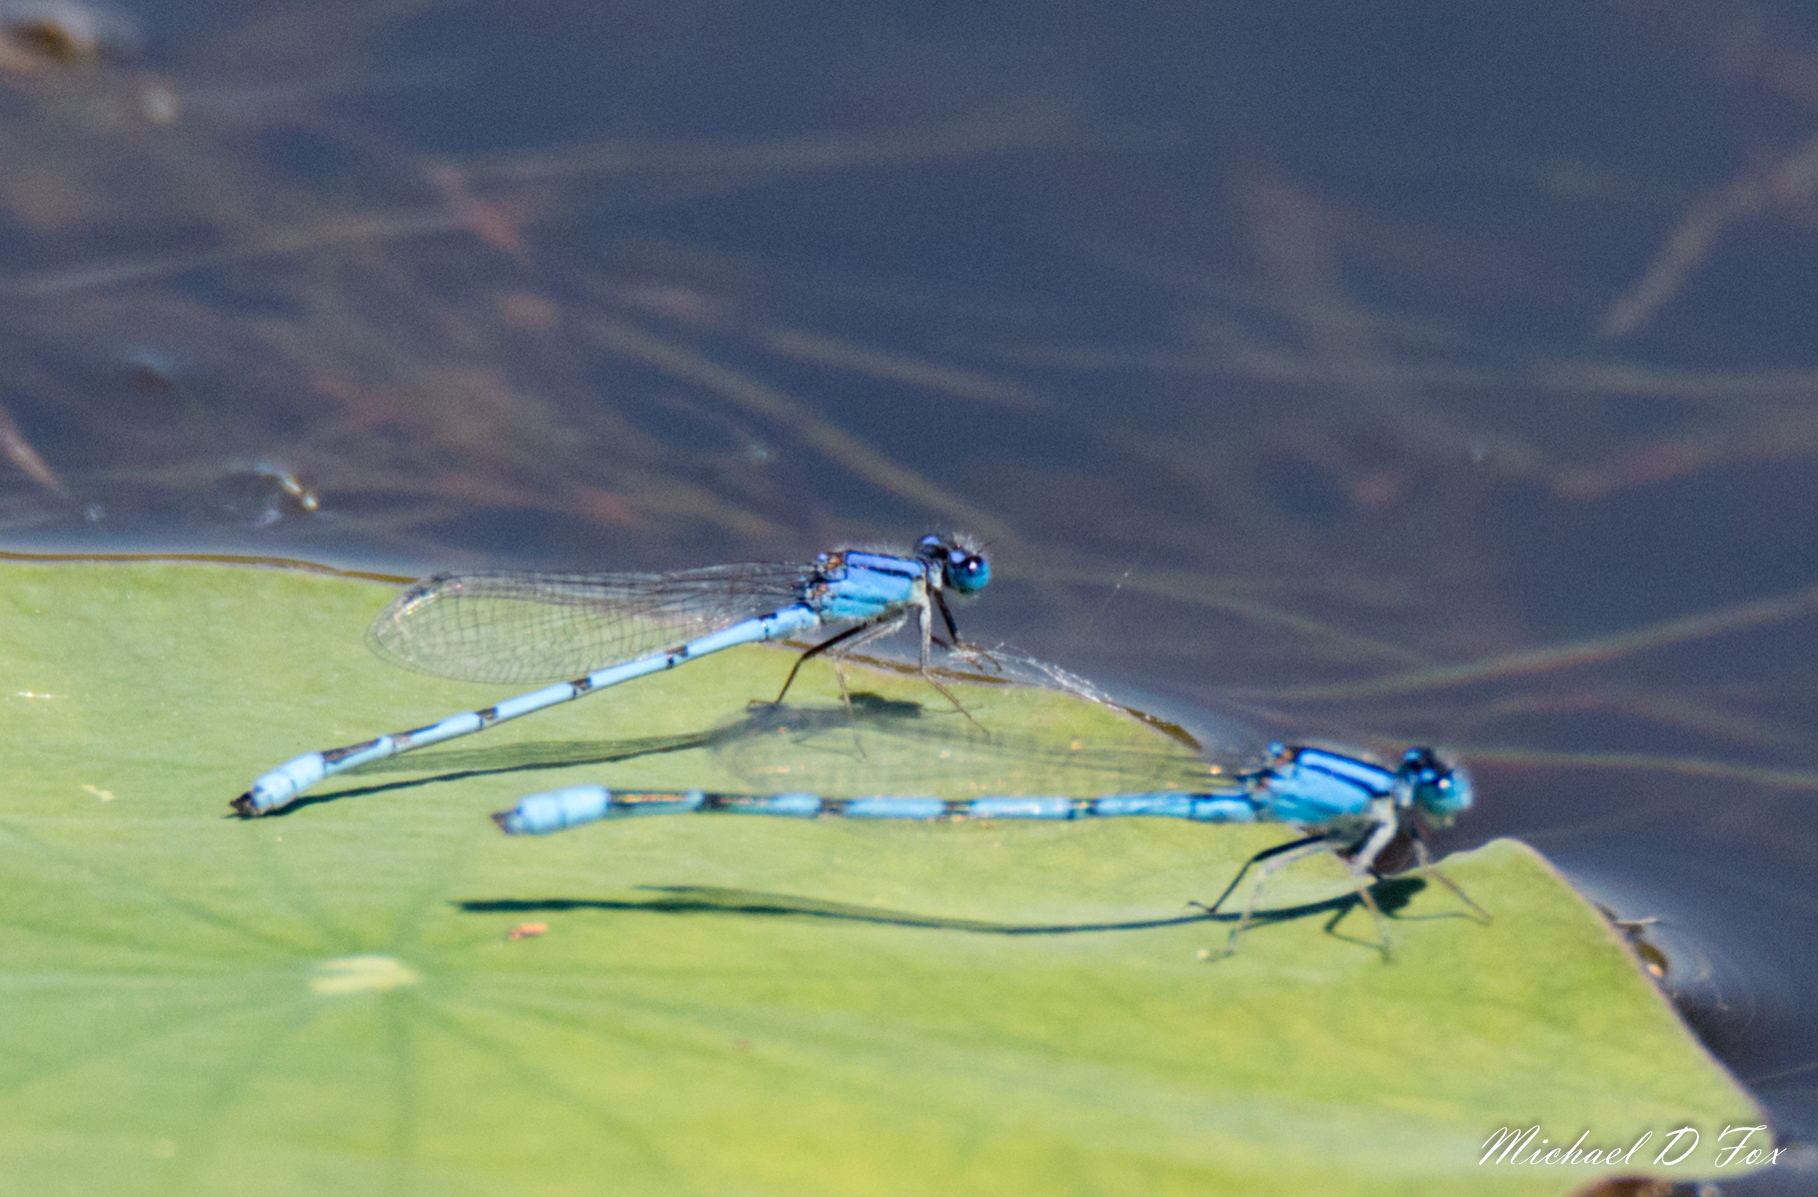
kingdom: Animalia
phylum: Arthropoda
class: Insecta
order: Odonata
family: Coenagrionidae
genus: Enallagma
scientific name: Enallagma civile
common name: Damselfly
